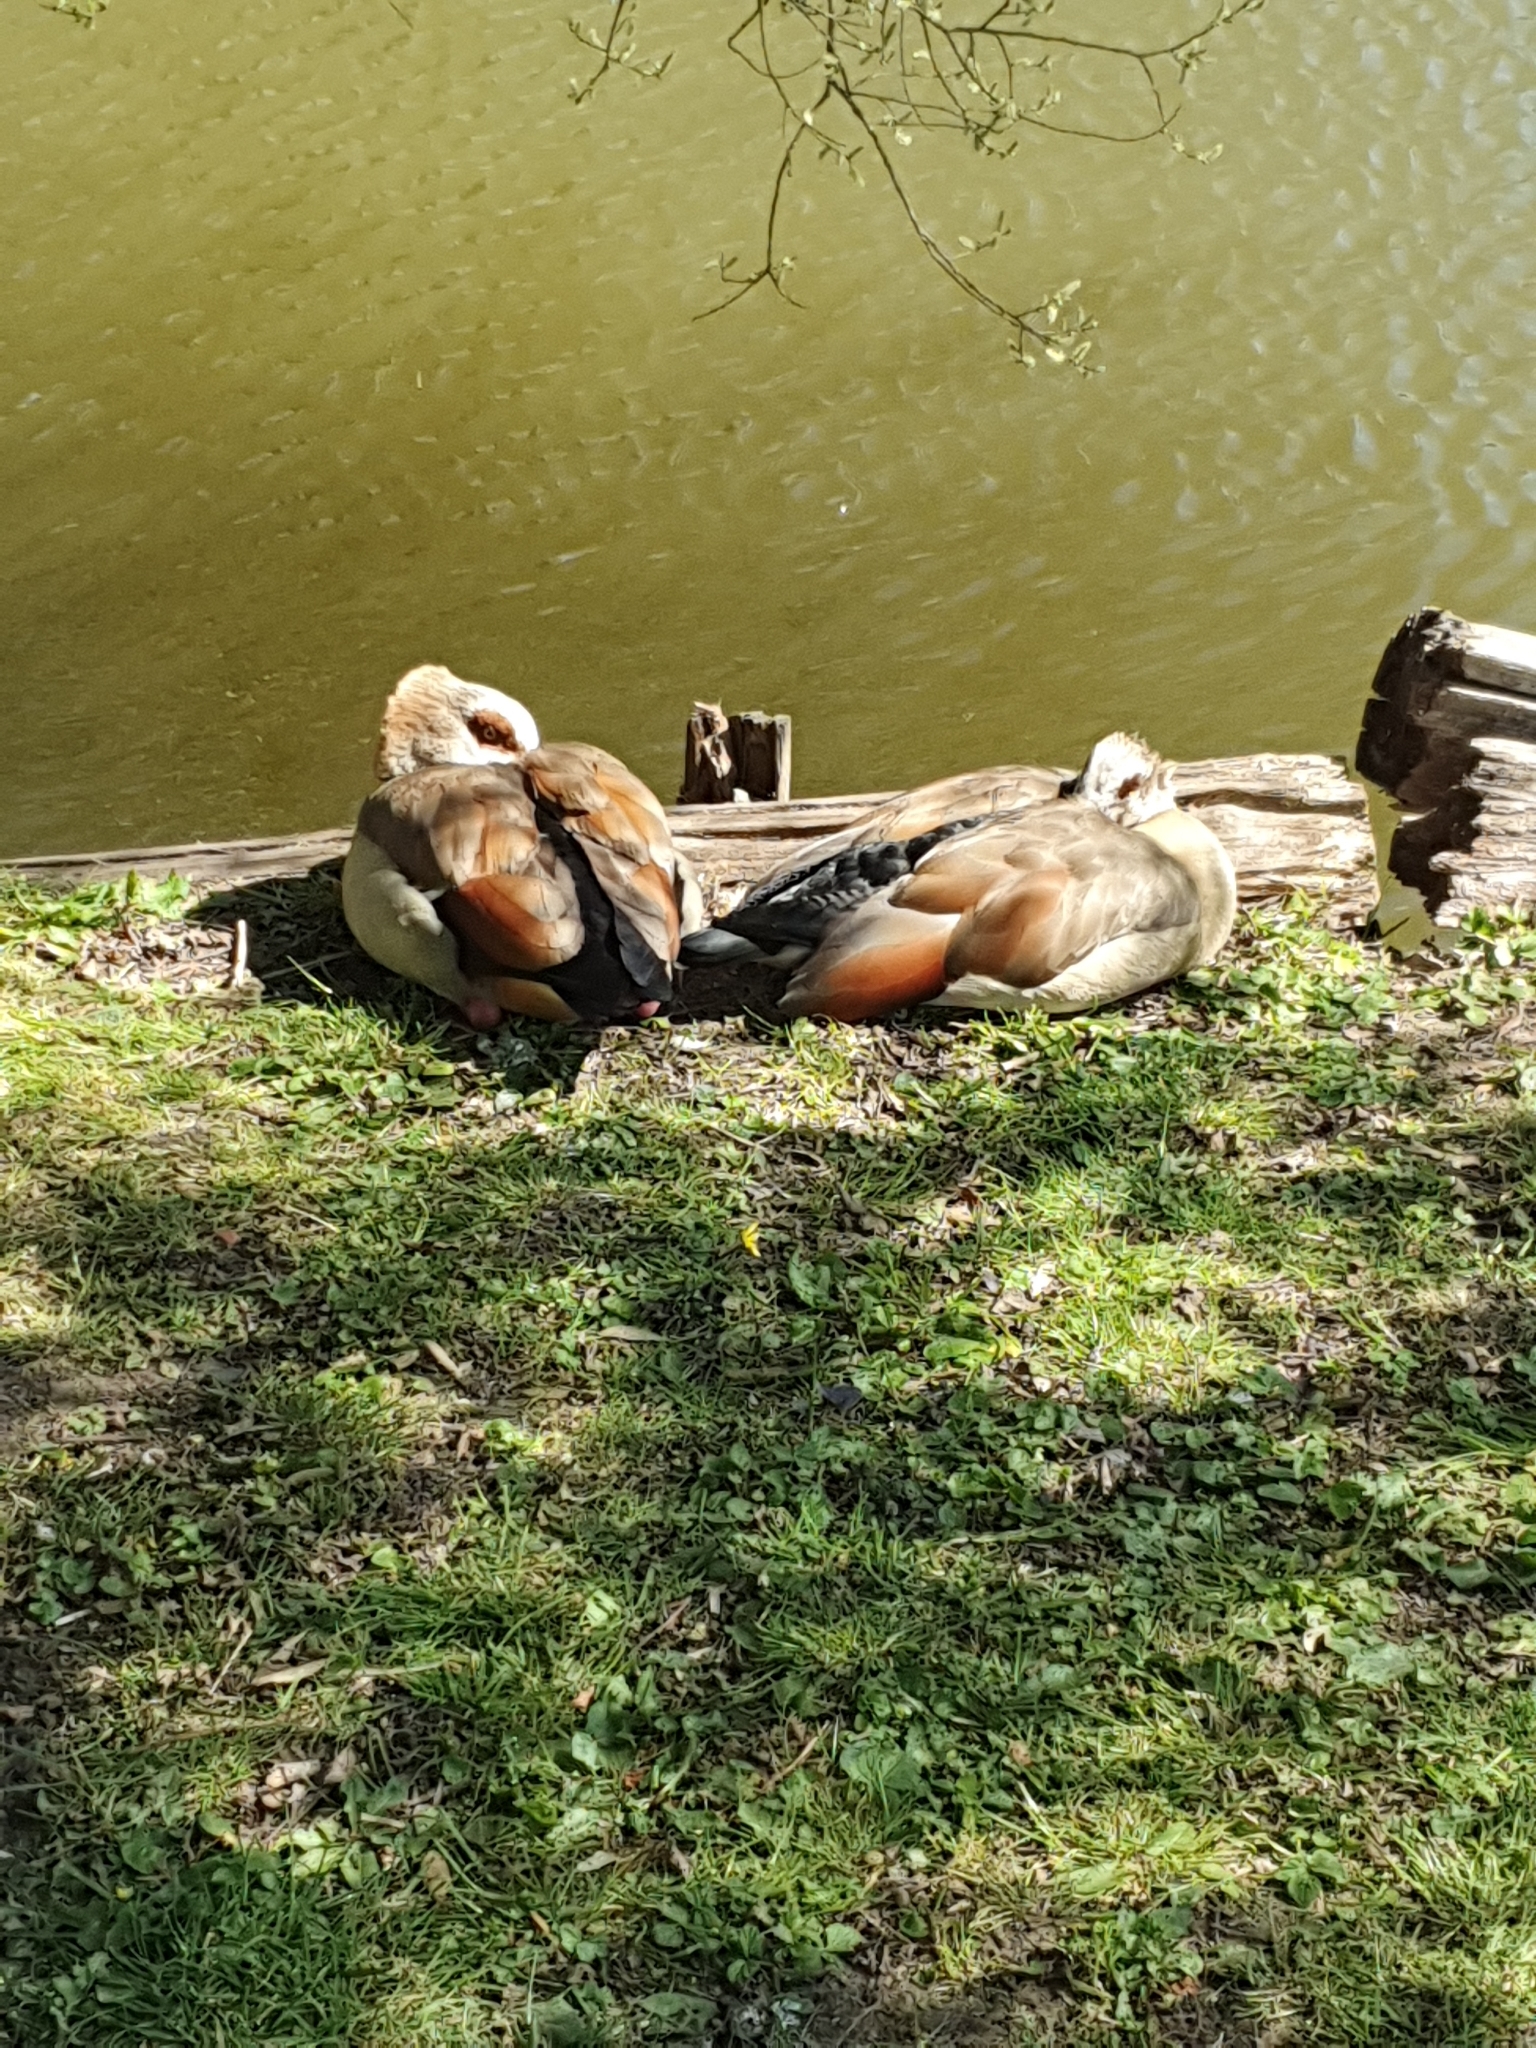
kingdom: Animalia
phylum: Chordata
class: Aves
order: Anseriformes
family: Anatidae
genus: Alopochen
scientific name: Alopochen aegyptiaca
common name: Egyptian goose
